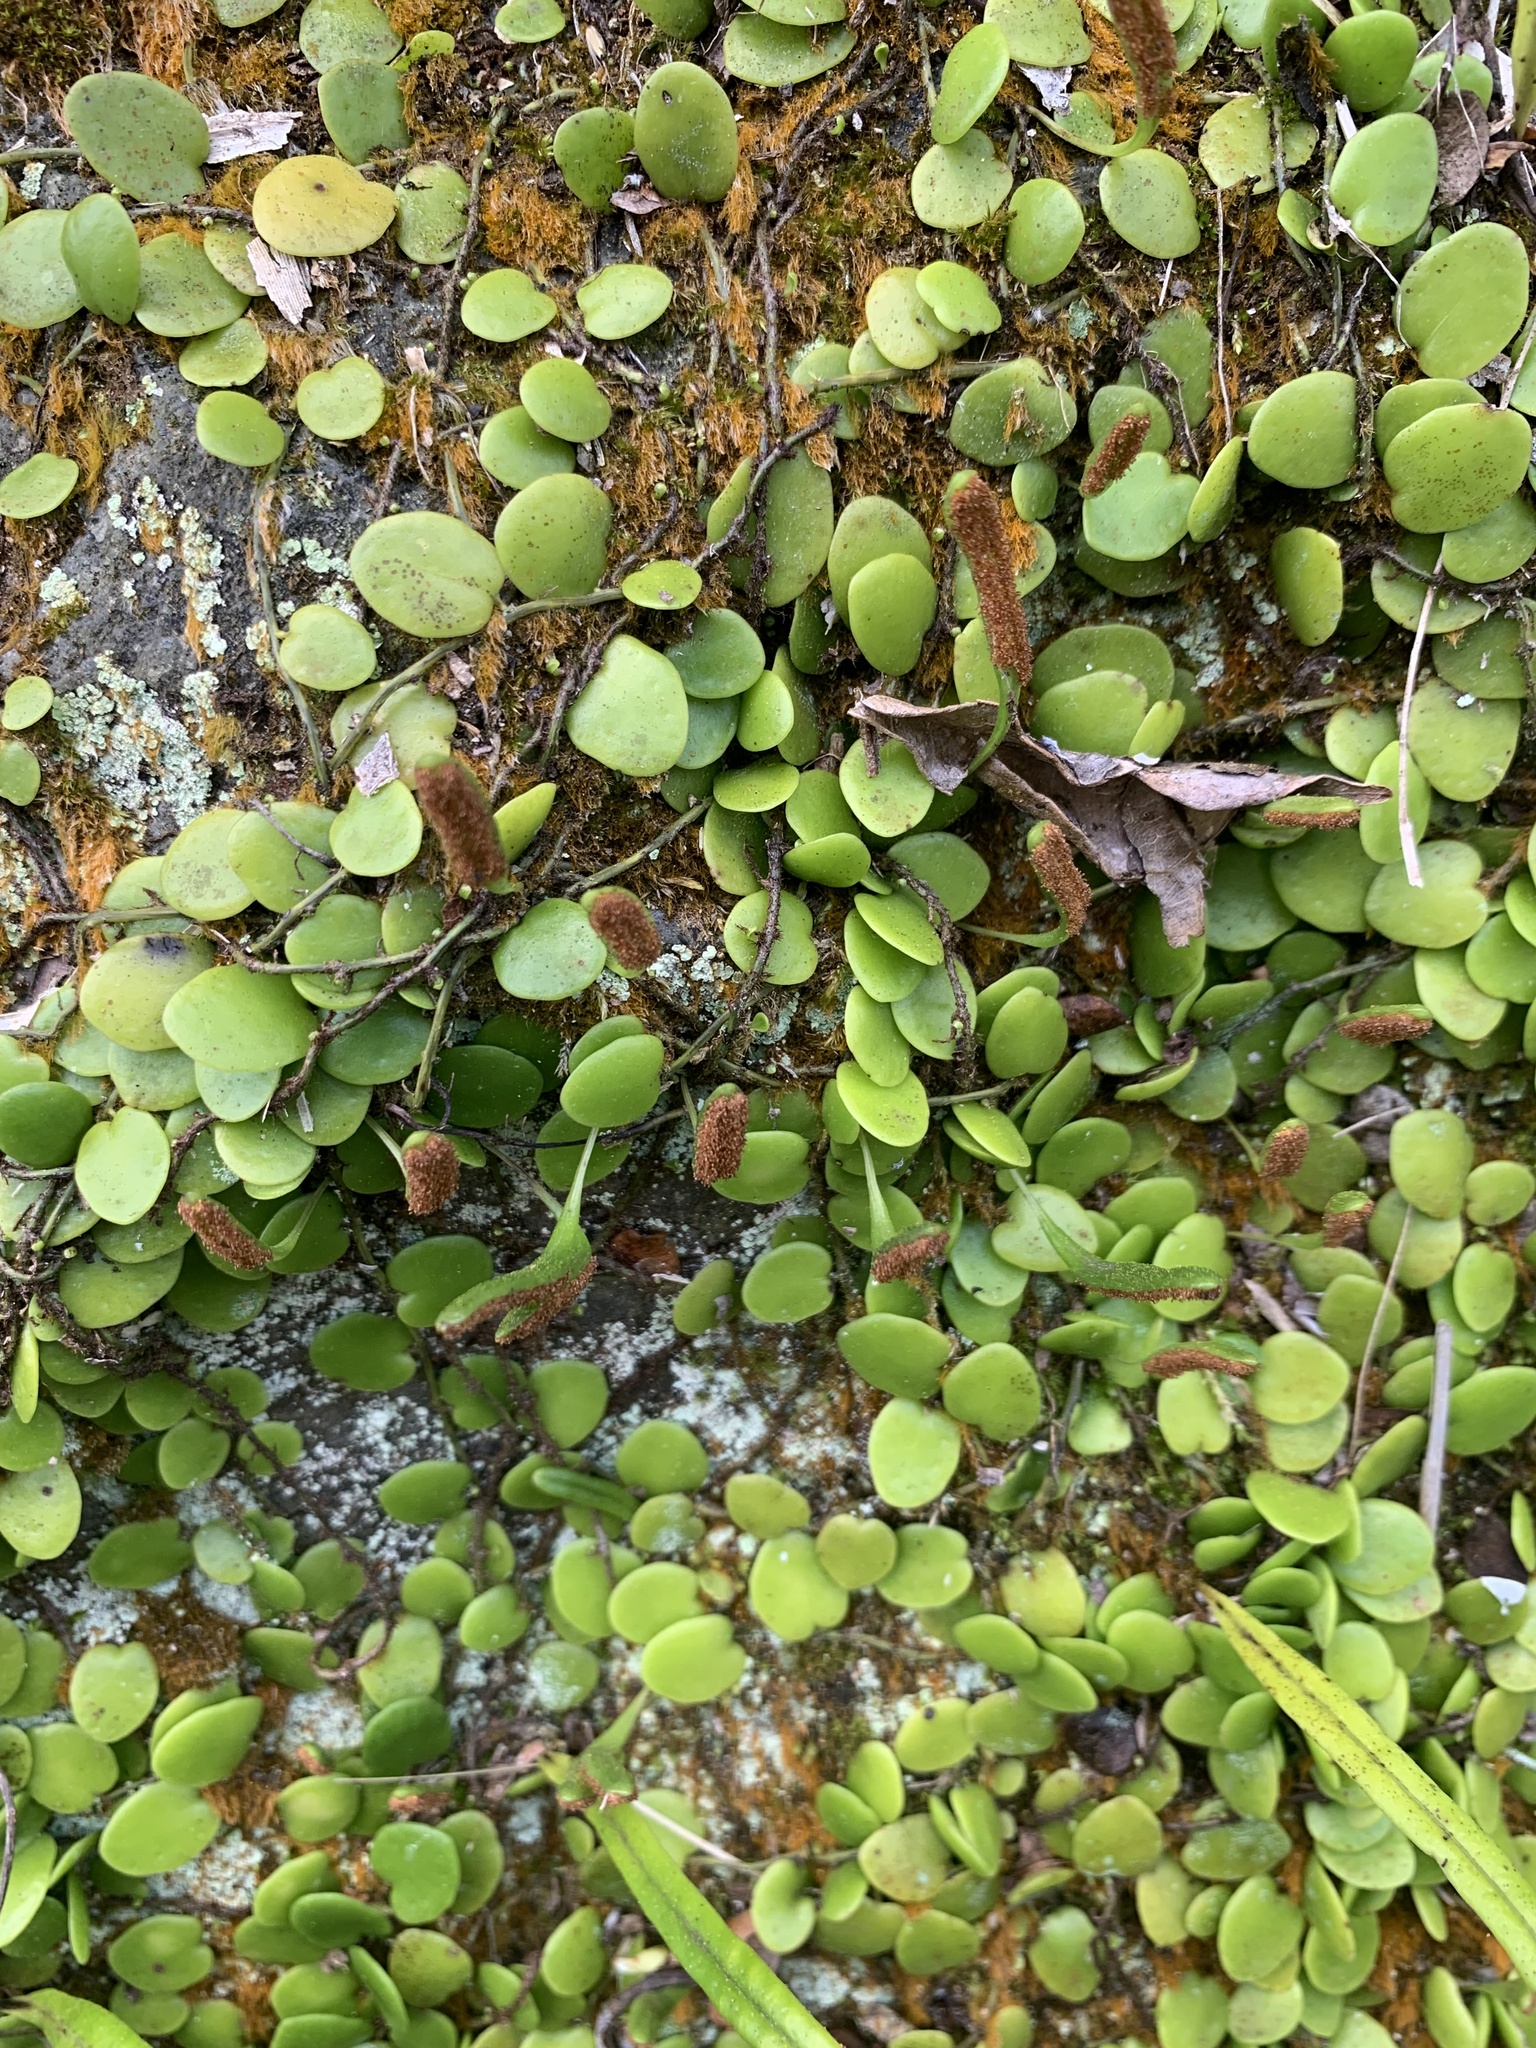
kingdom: Plantae
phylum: Tracheophyta
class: Polypodiopsida
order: Polypodiales
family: Polypodiaceae
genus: Lepisorus
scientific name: Lepisorus microphyllus
